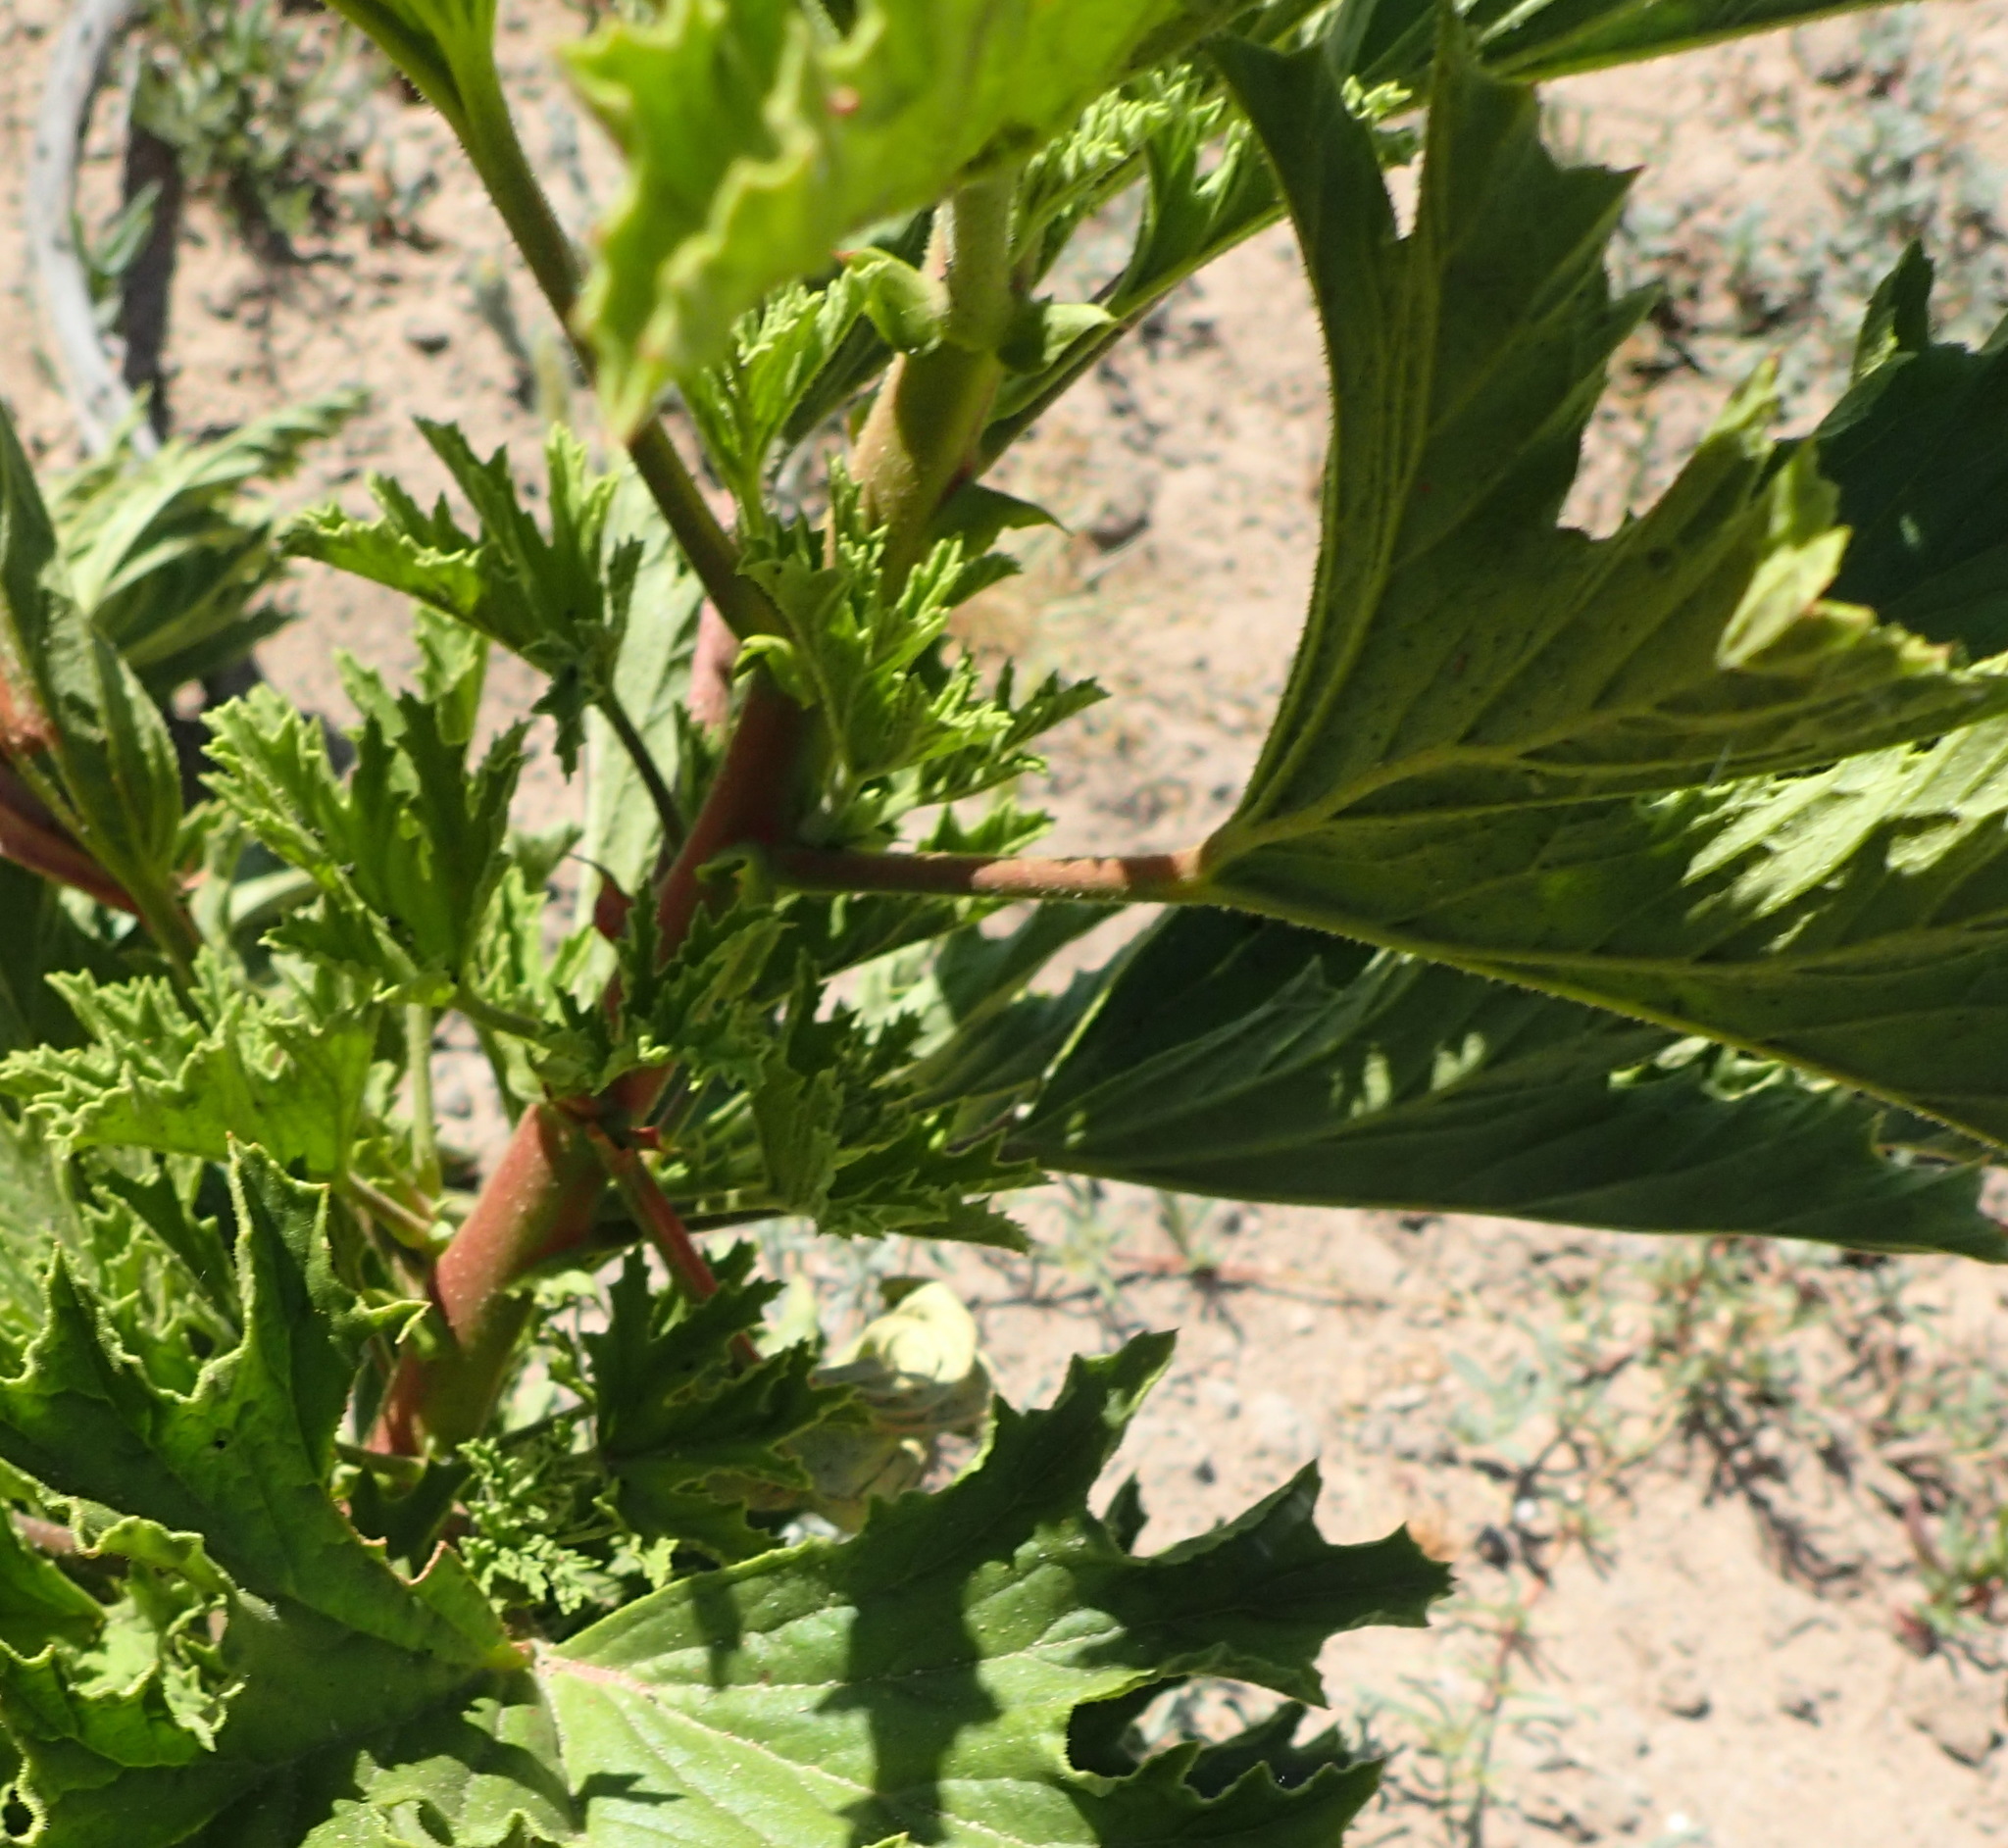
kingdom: Plantae
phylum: Tracheophyta
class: Magnoliopsida
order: Geraniales
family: Geraniaceae
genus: Pelargonium
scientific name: Pelargonium ribifolium
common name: Currant-leaf pelargonium
